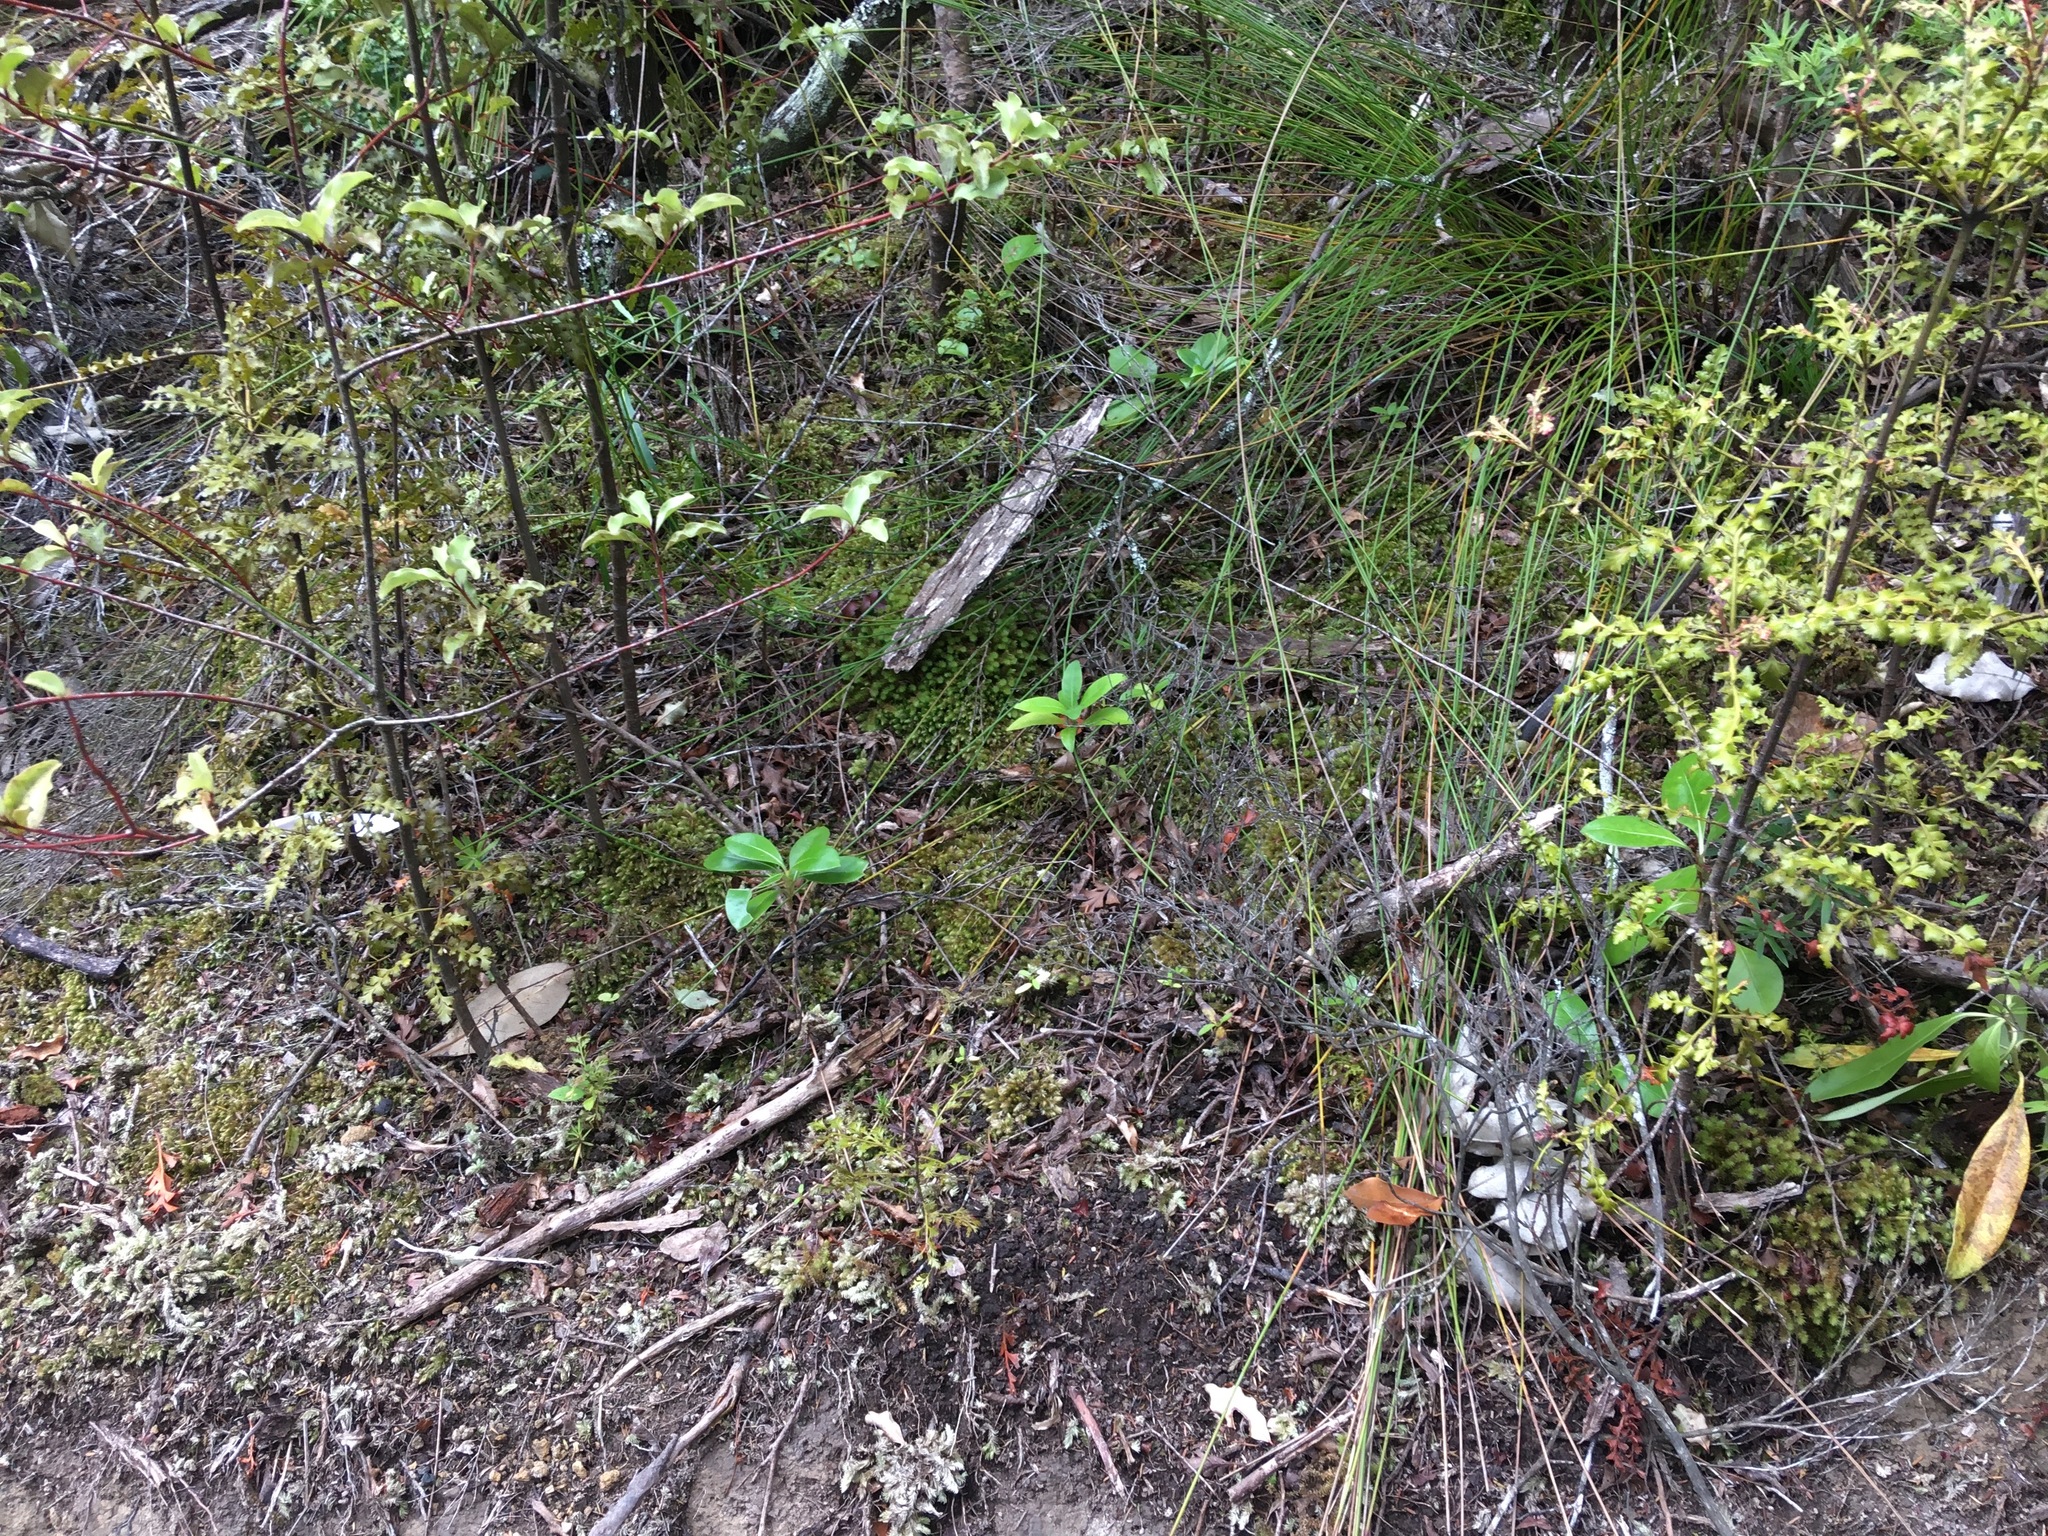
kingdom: Plantae
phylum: Tracheophyta
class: Liliopsida
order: Poales
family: Cyperaceae
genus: Schoenus
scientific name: Schoenus tendo
